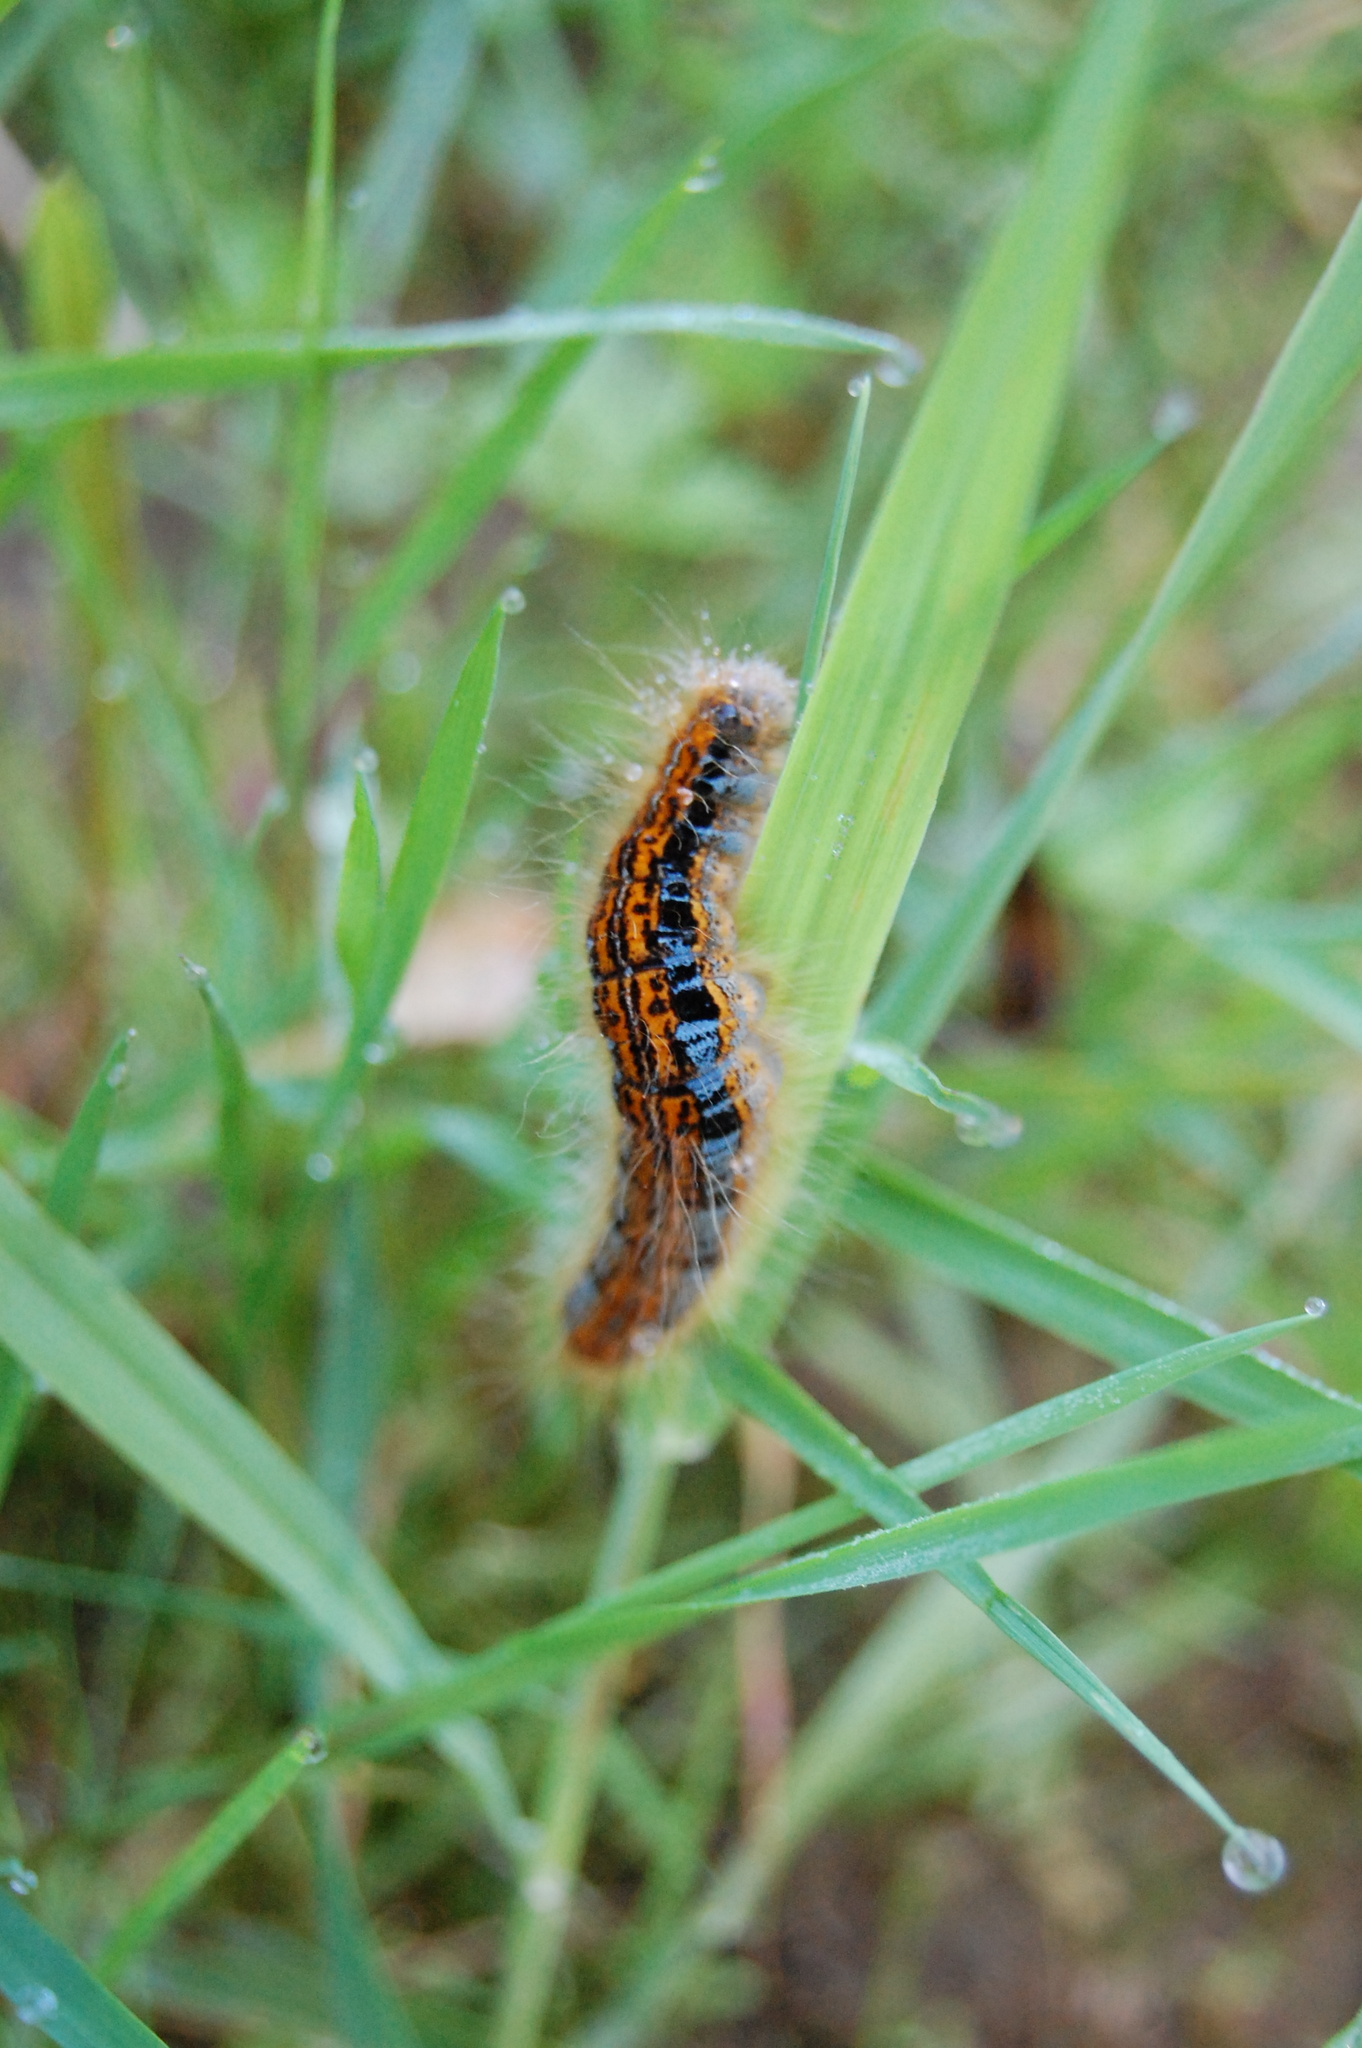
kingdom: Animalia
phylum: Arthropoda
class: Insecta
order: Lepidoptera
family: Lasiocampidae
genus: Malacosoma
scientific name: Malacosoma castrense
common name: Ground lackey
